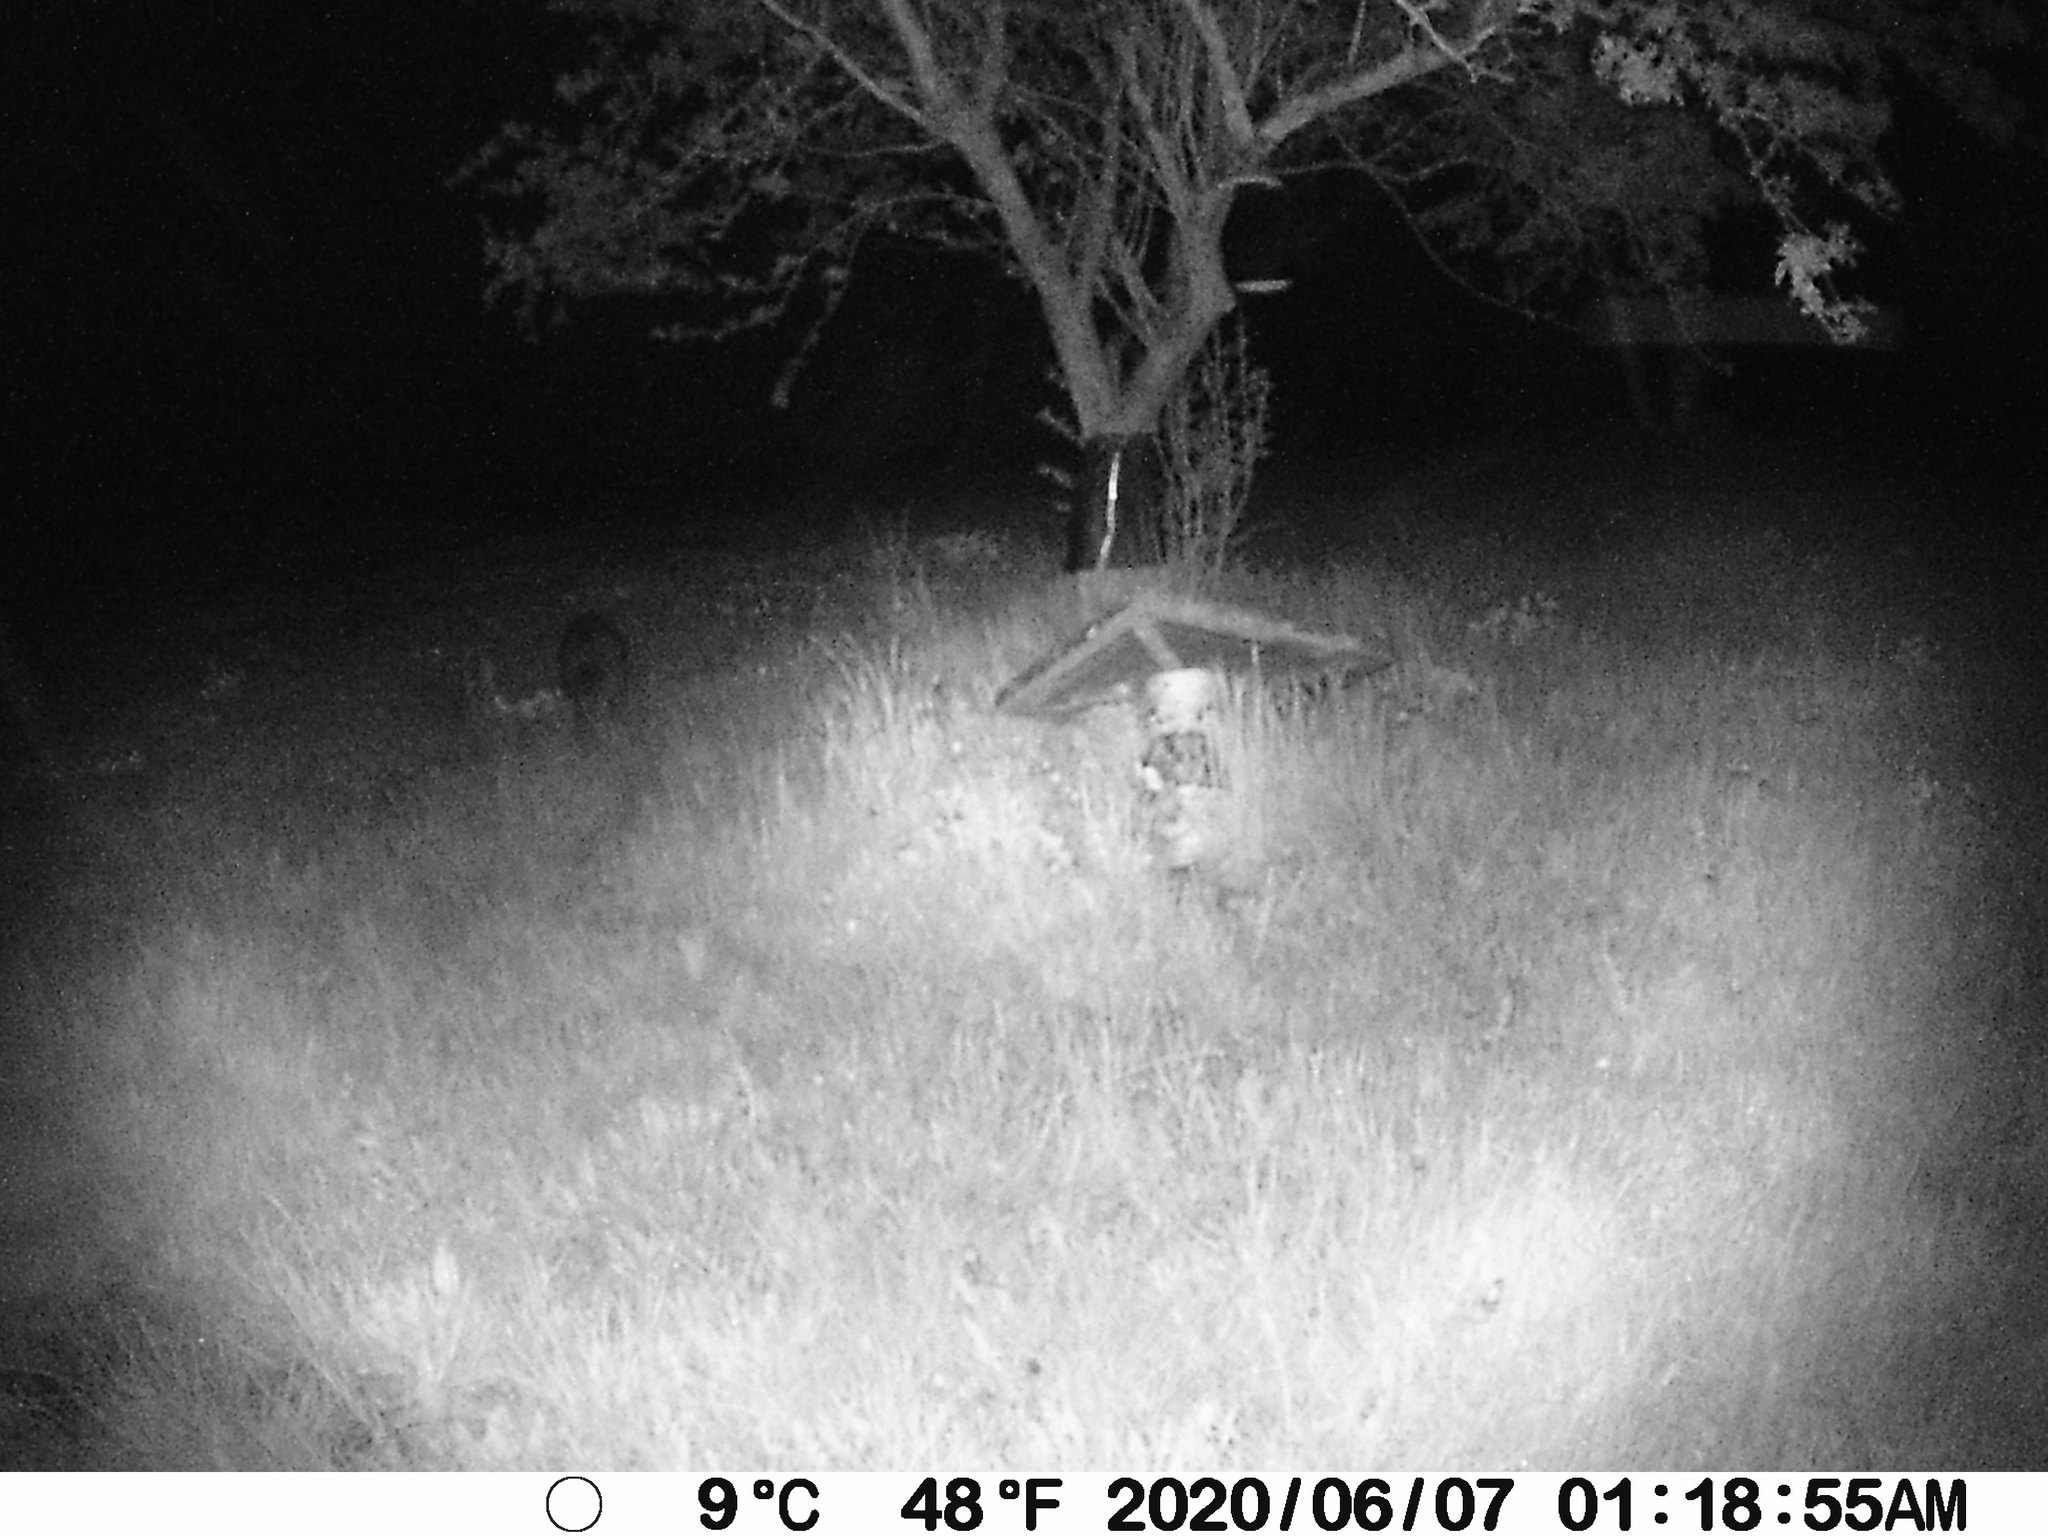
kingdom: Animalia
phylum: Chordata
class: Mammalia
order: Carnivora
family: Procyonidae
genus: Procyon
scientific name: Procyon lotor
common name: Raccoon
